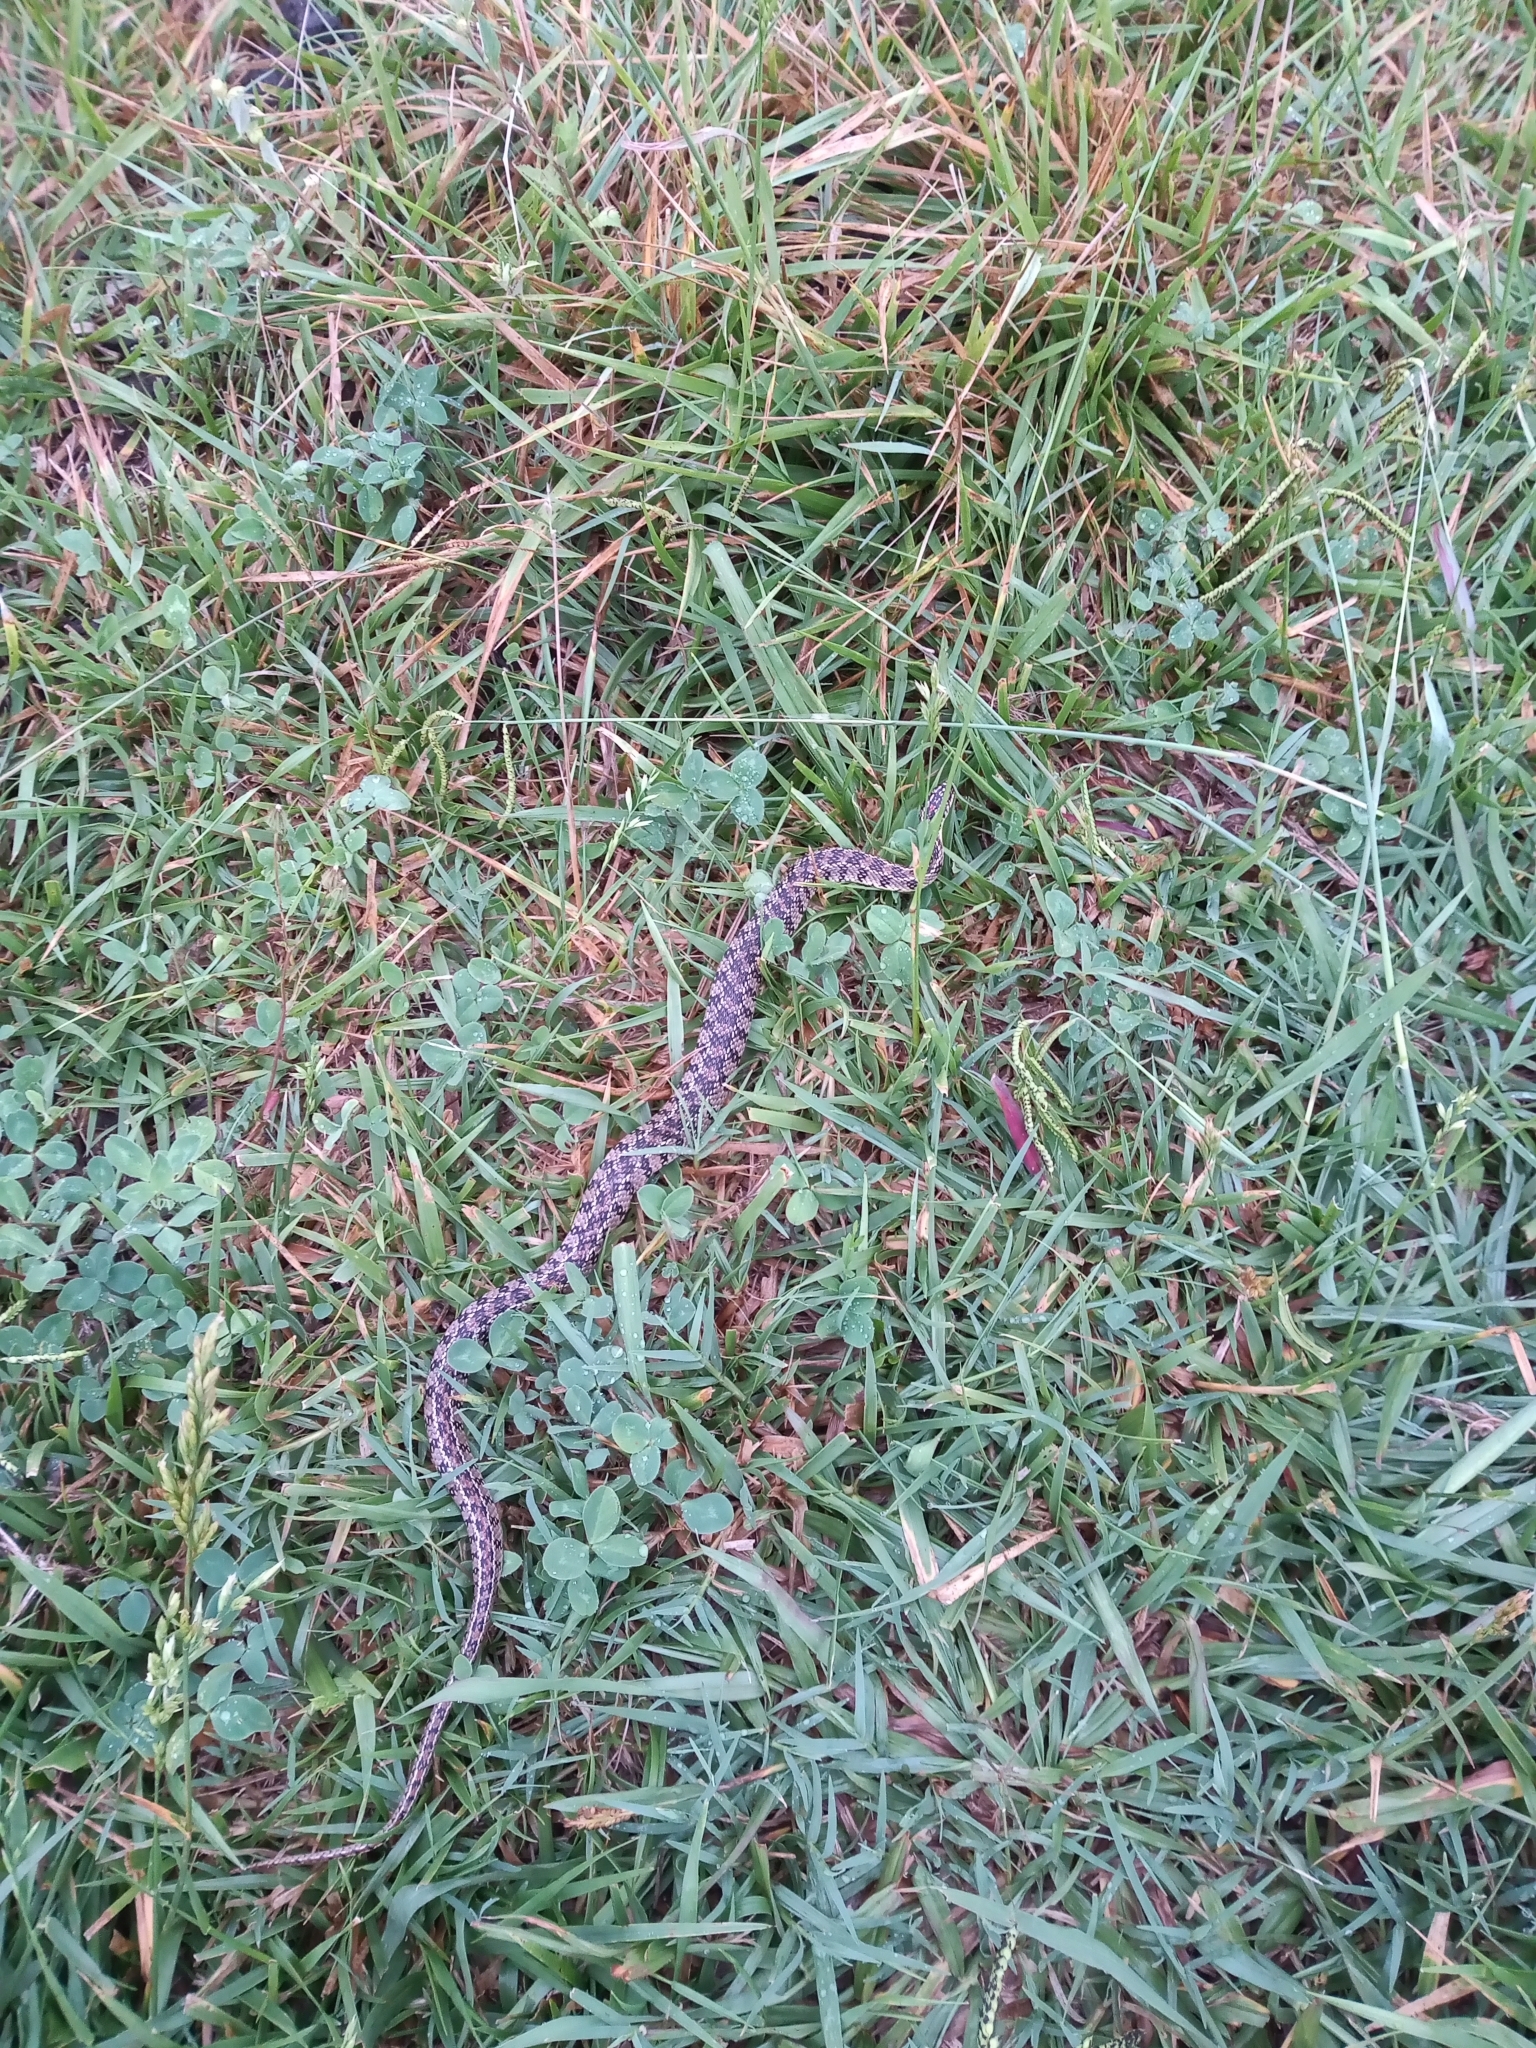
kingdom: Animalia
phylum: Chordata
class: Squamata
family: Colubridae
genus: Lygophis
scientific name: Lygophis anomalus
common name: English common name not available
